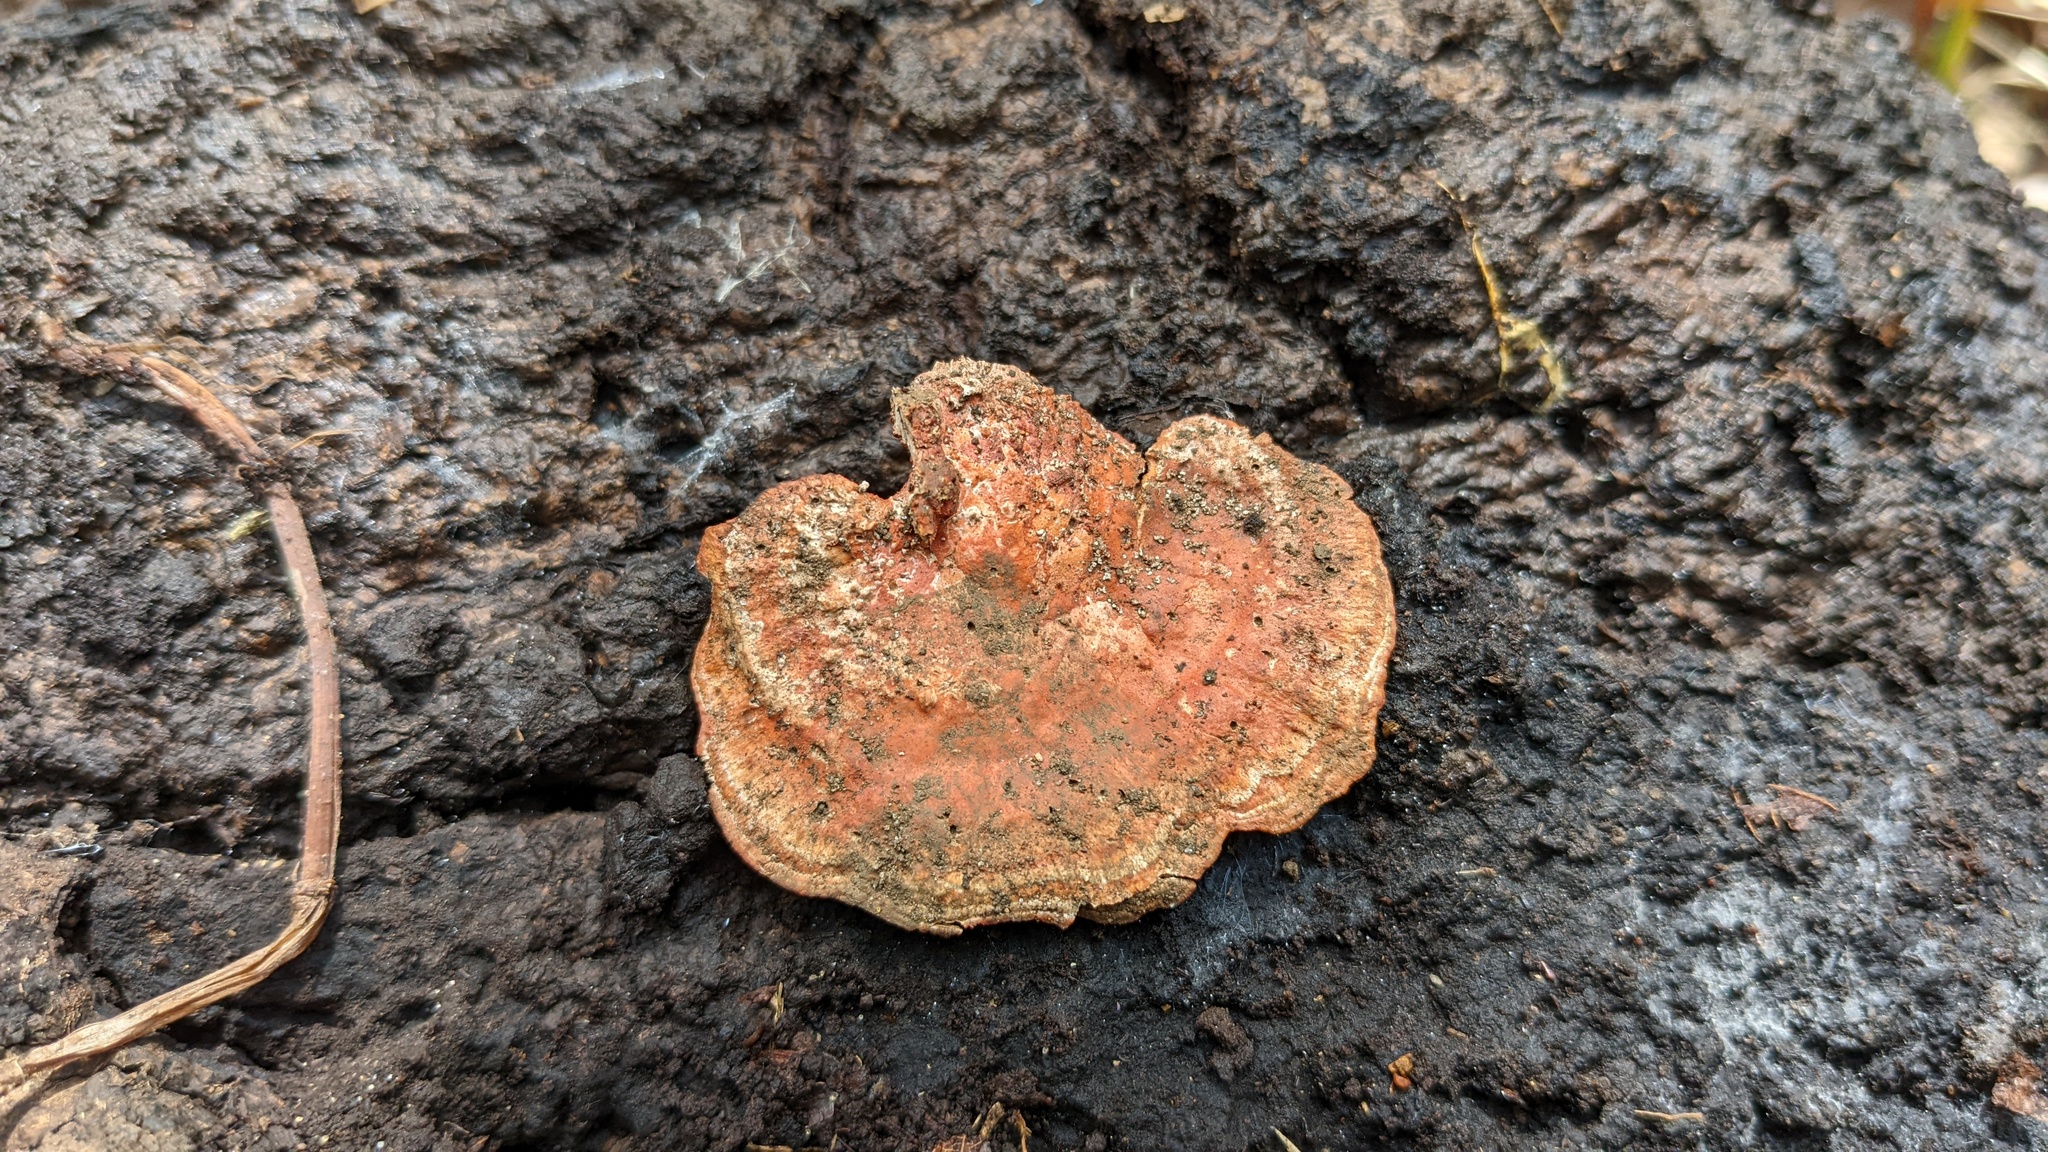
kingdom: Fungi
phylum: Basidiomycota
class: Agaricomycetes
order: Polyporales
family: Polyporaceae
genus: Trametes
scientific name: Trametes coccinea
